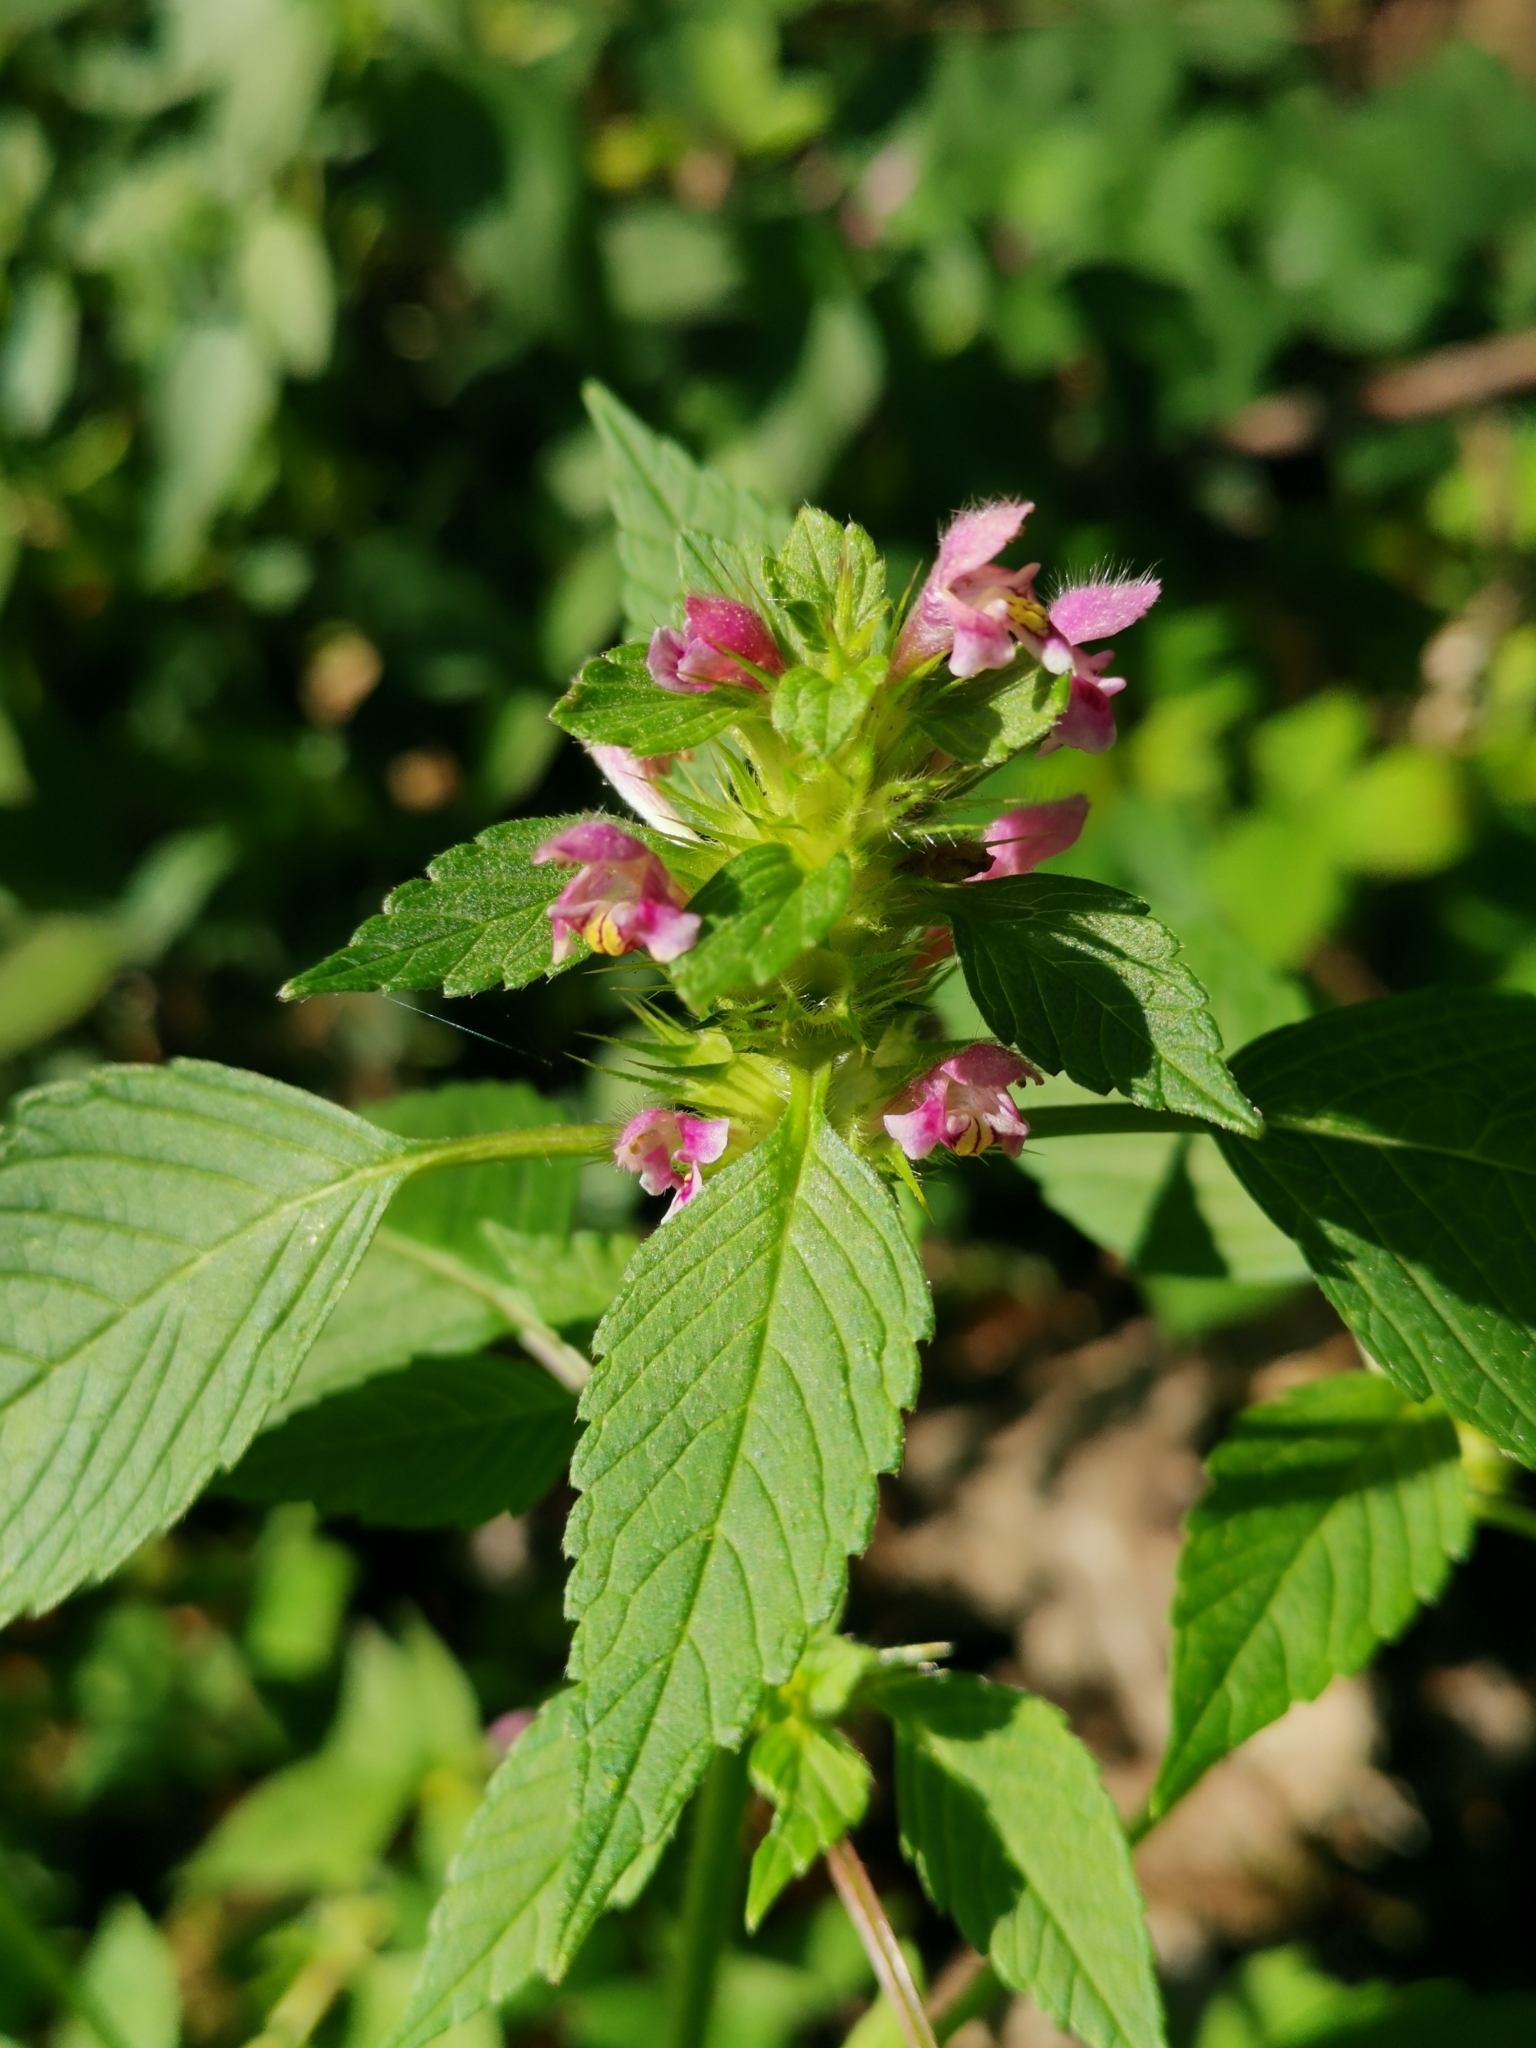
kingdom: Plantae
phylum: Tracheophyta
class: Magnoliopsida
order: Lamiales
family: Lamiaceae
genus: Galeopsis
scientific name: Galeopsis tetrahit
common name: Common hemp-nettle
